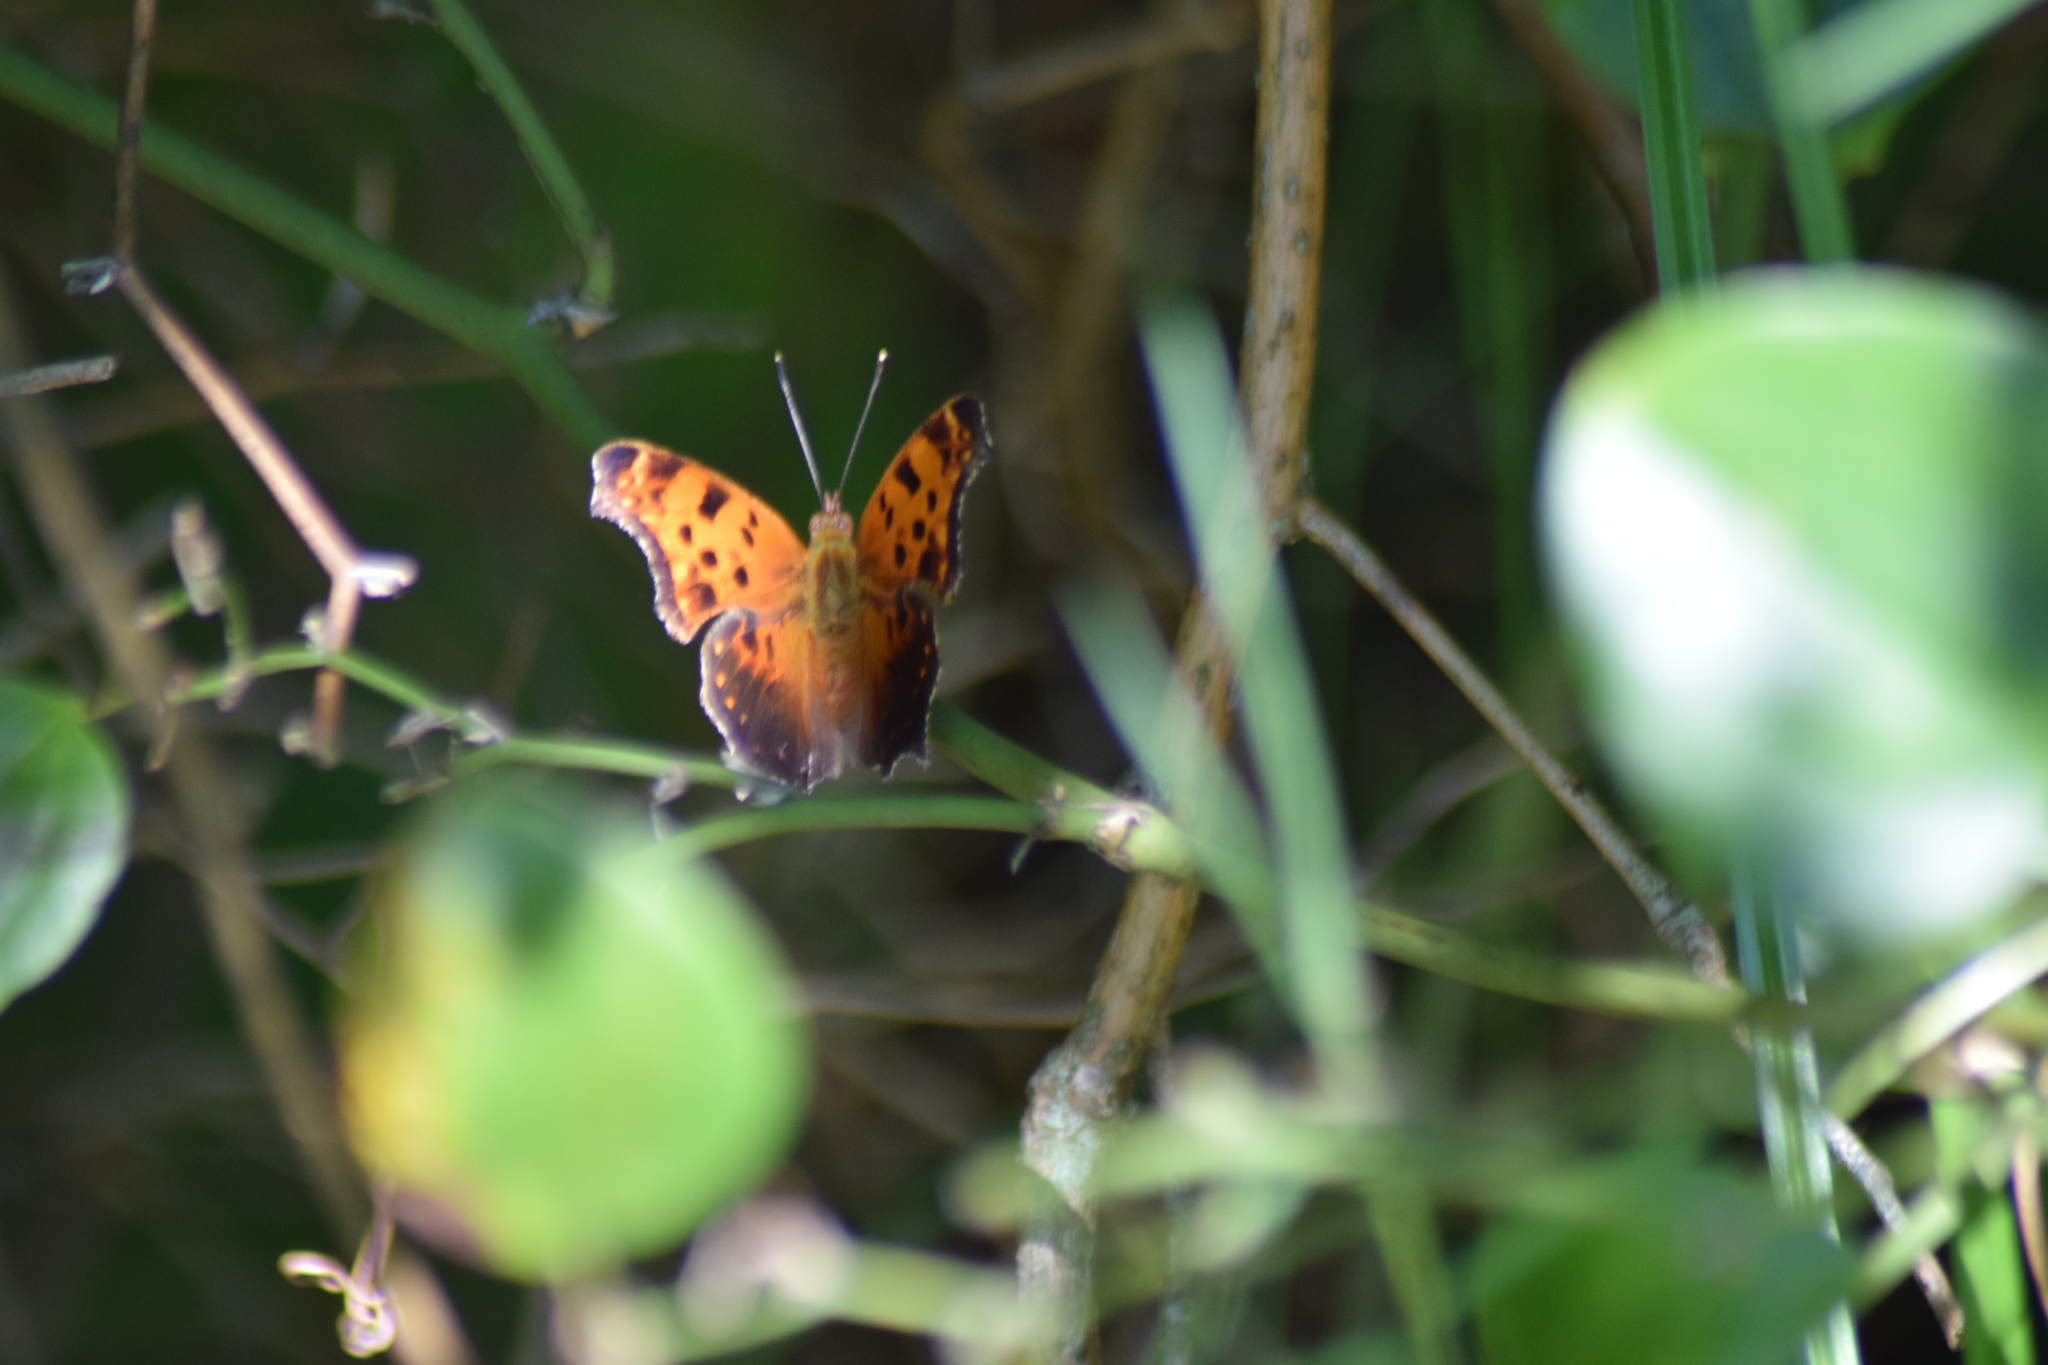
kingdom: Animalia
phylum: Arthropoda
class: Insecta
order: Lepidoptera
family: Nymphalidae
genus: Polygonia
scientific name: Polygonia comma
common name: Eastern comma
